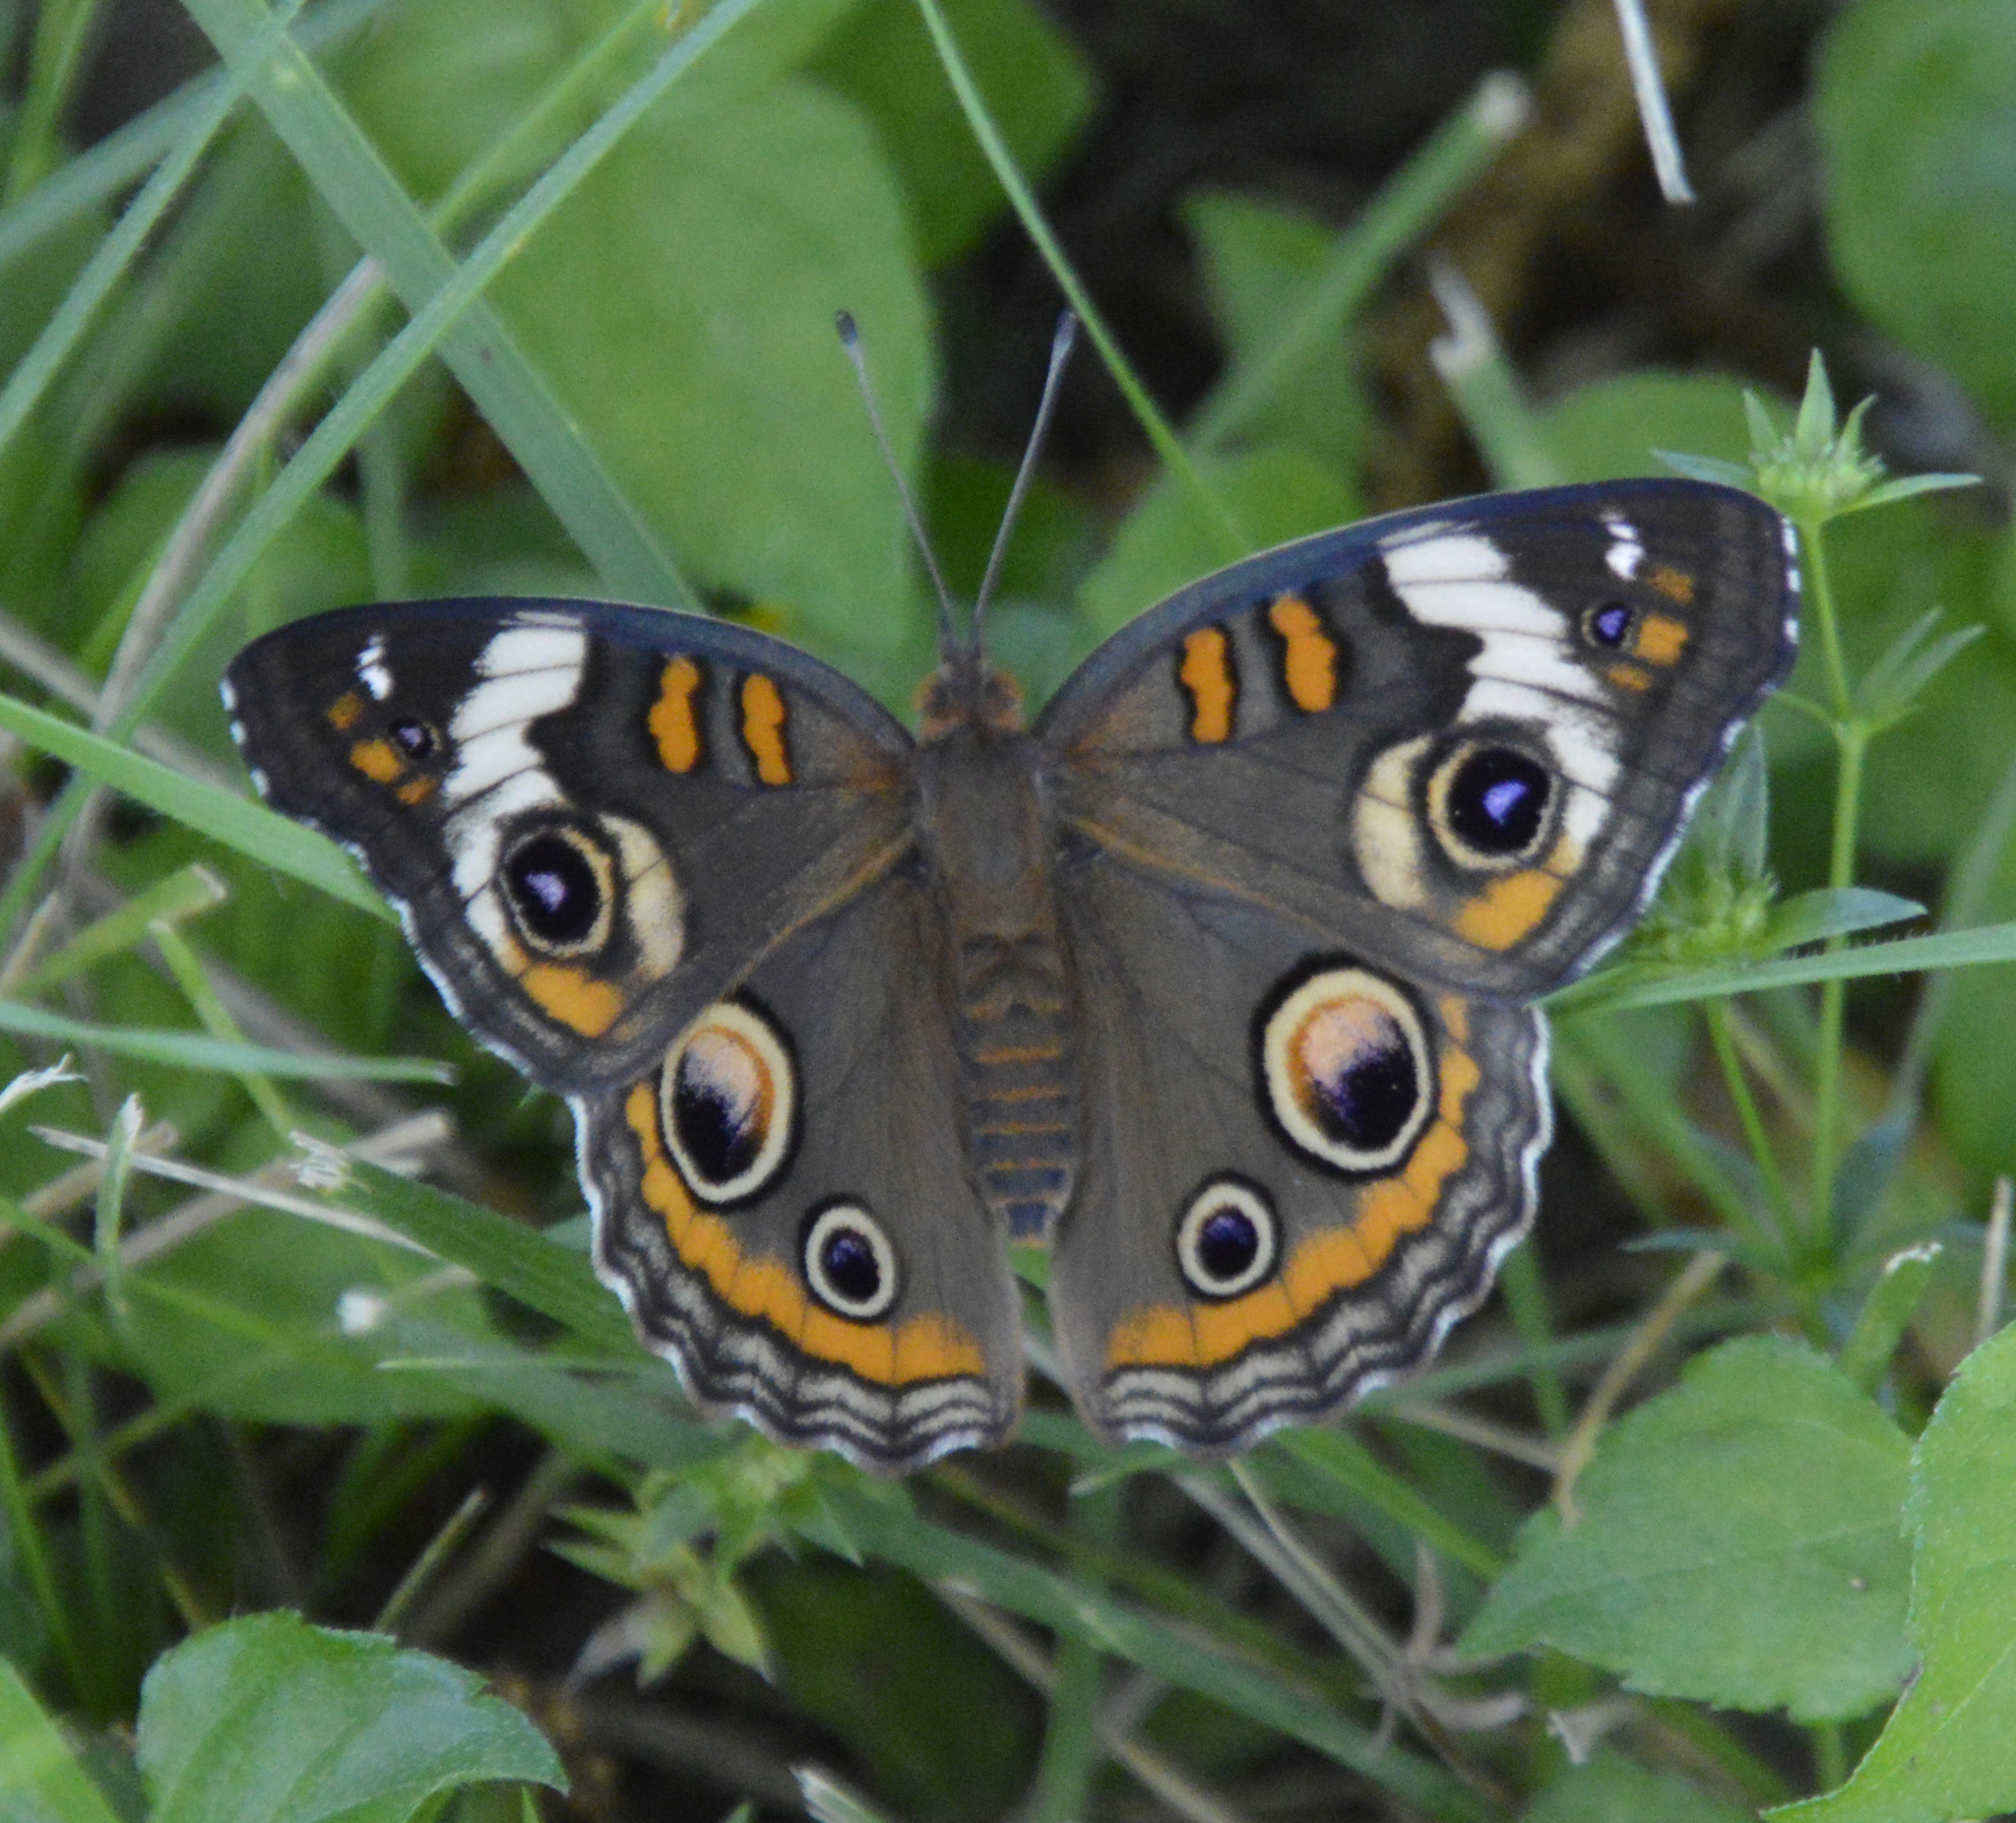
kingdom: Animalia
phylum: Arthropoda
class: Insecta
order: Lepidoptera
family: Nymphalidae
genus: Junonia
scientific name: Junonia coenia
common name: Common buckeye
